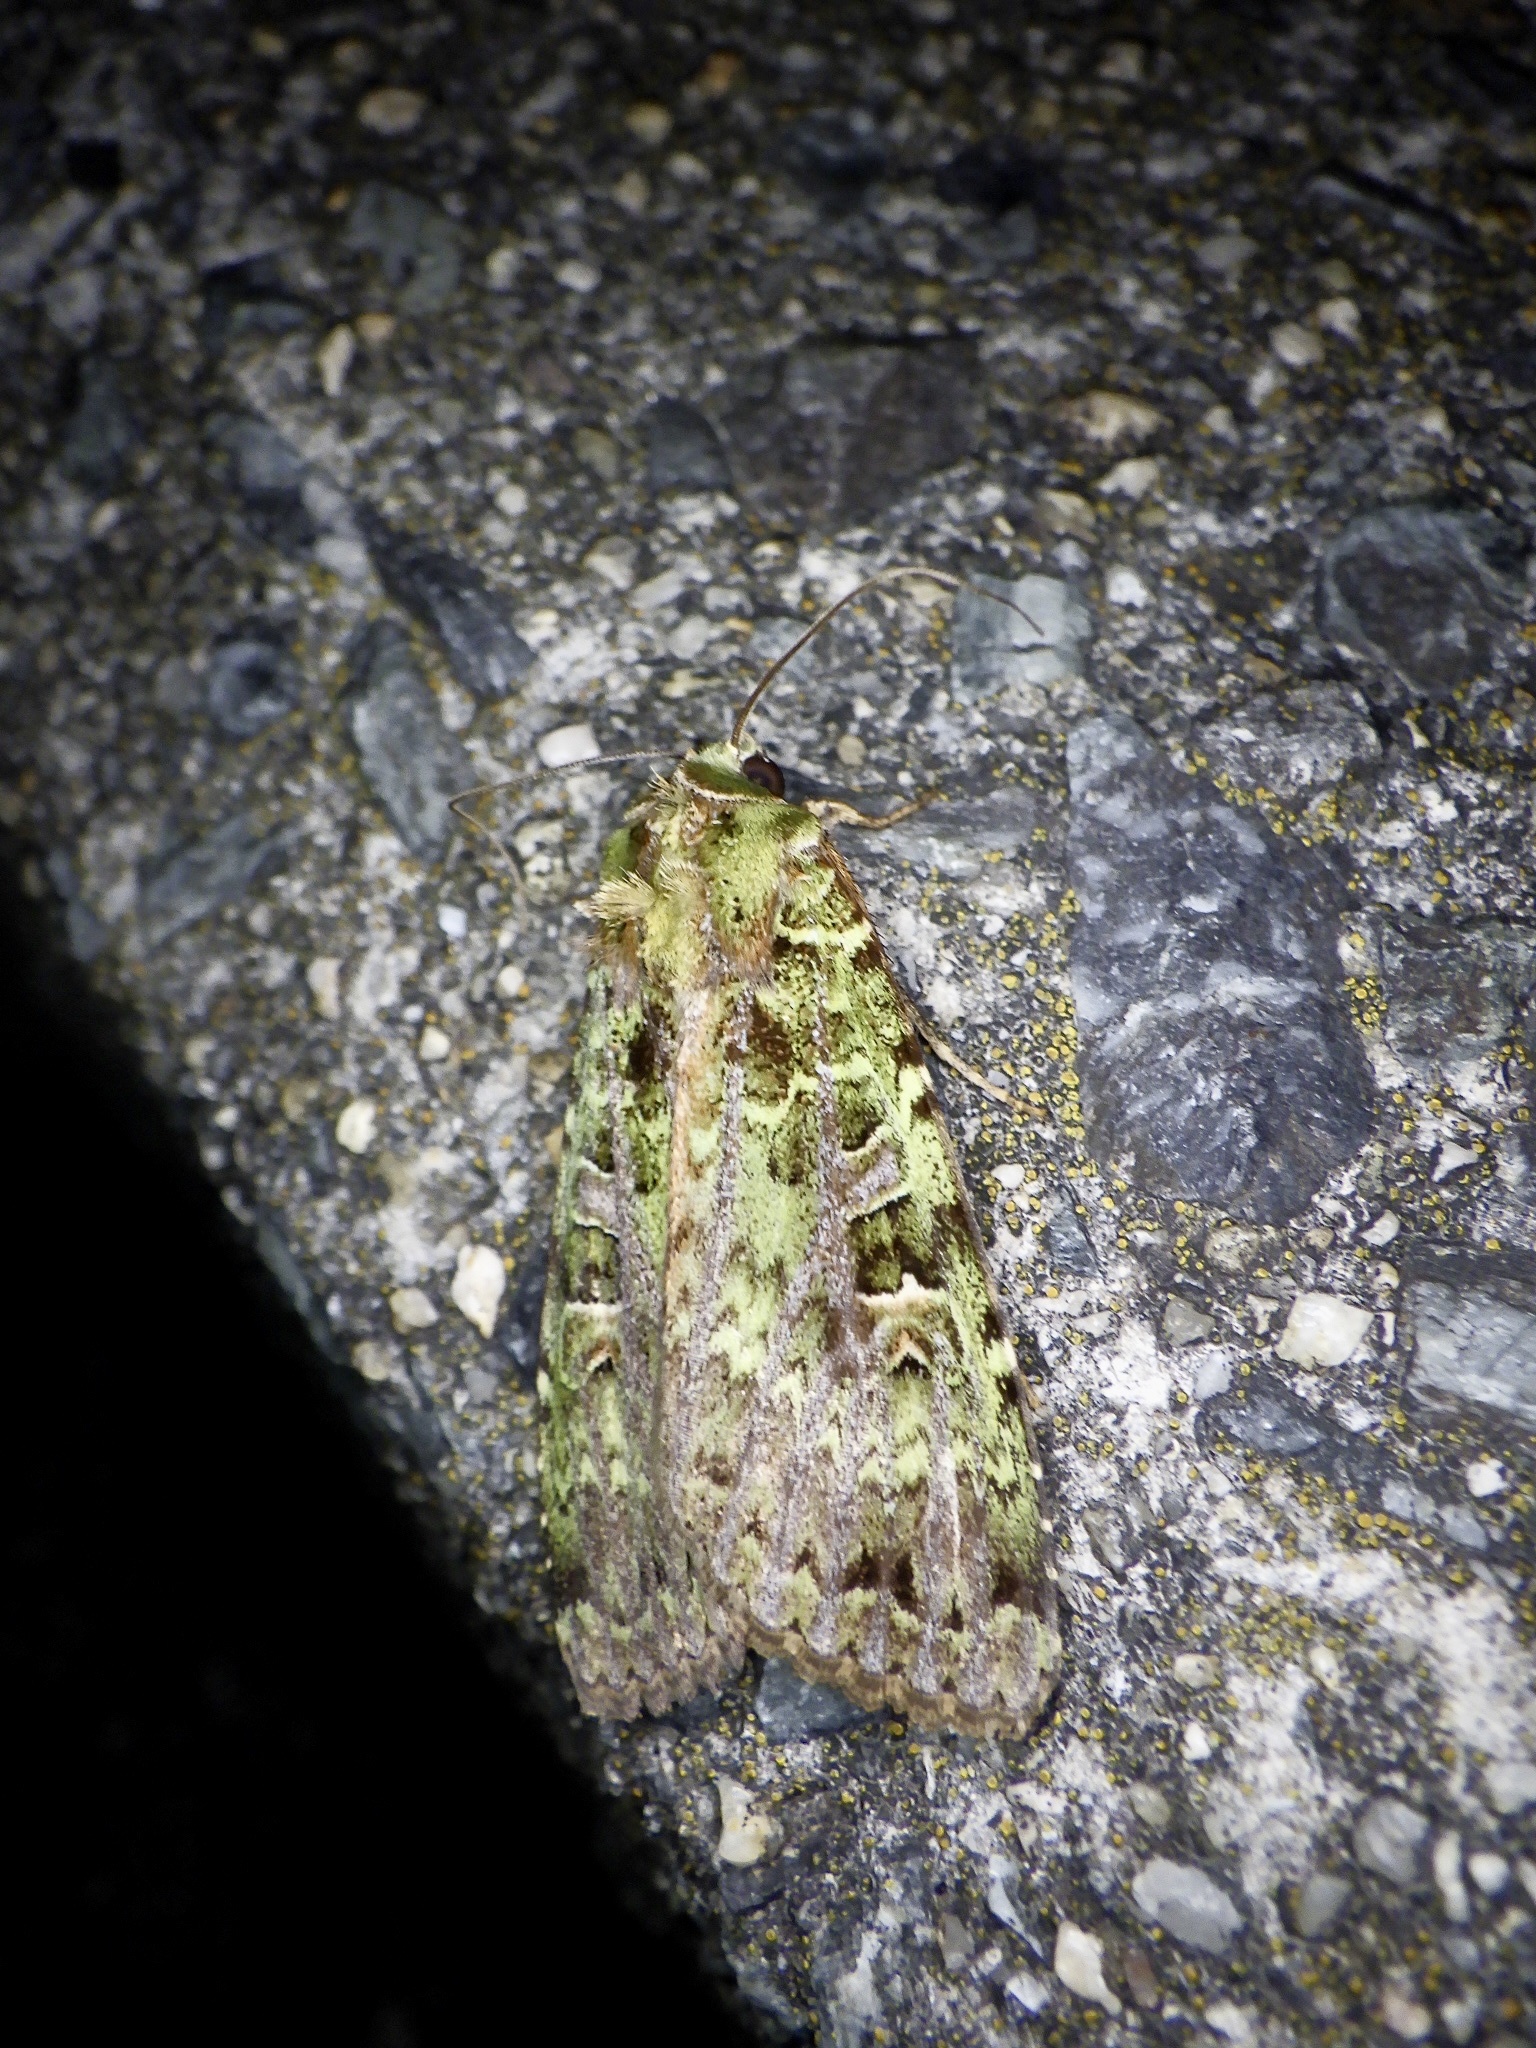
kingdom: Animalia
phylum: Arthropoda
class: Insecta
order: Lepidoptera
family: Noctuidae
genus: Anaplectoides
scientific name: Anaplectoides virens
